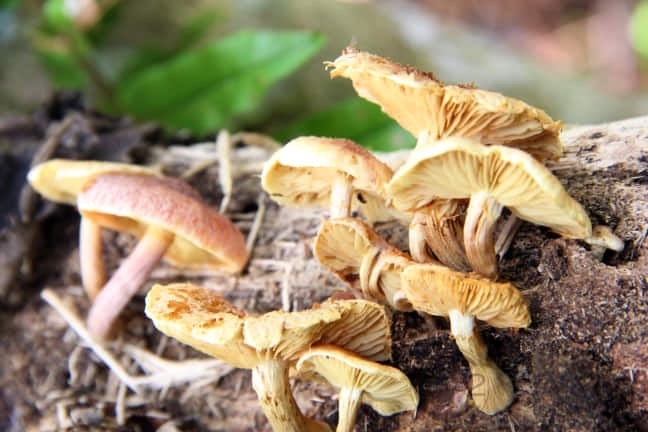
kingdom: Fungi
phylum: Basidiomycota
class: Agaricomycetes
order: Agaricales
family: Hymenogastraceae
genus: Gymnopilus
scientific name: Gymnopilus purpureosquamulosus
